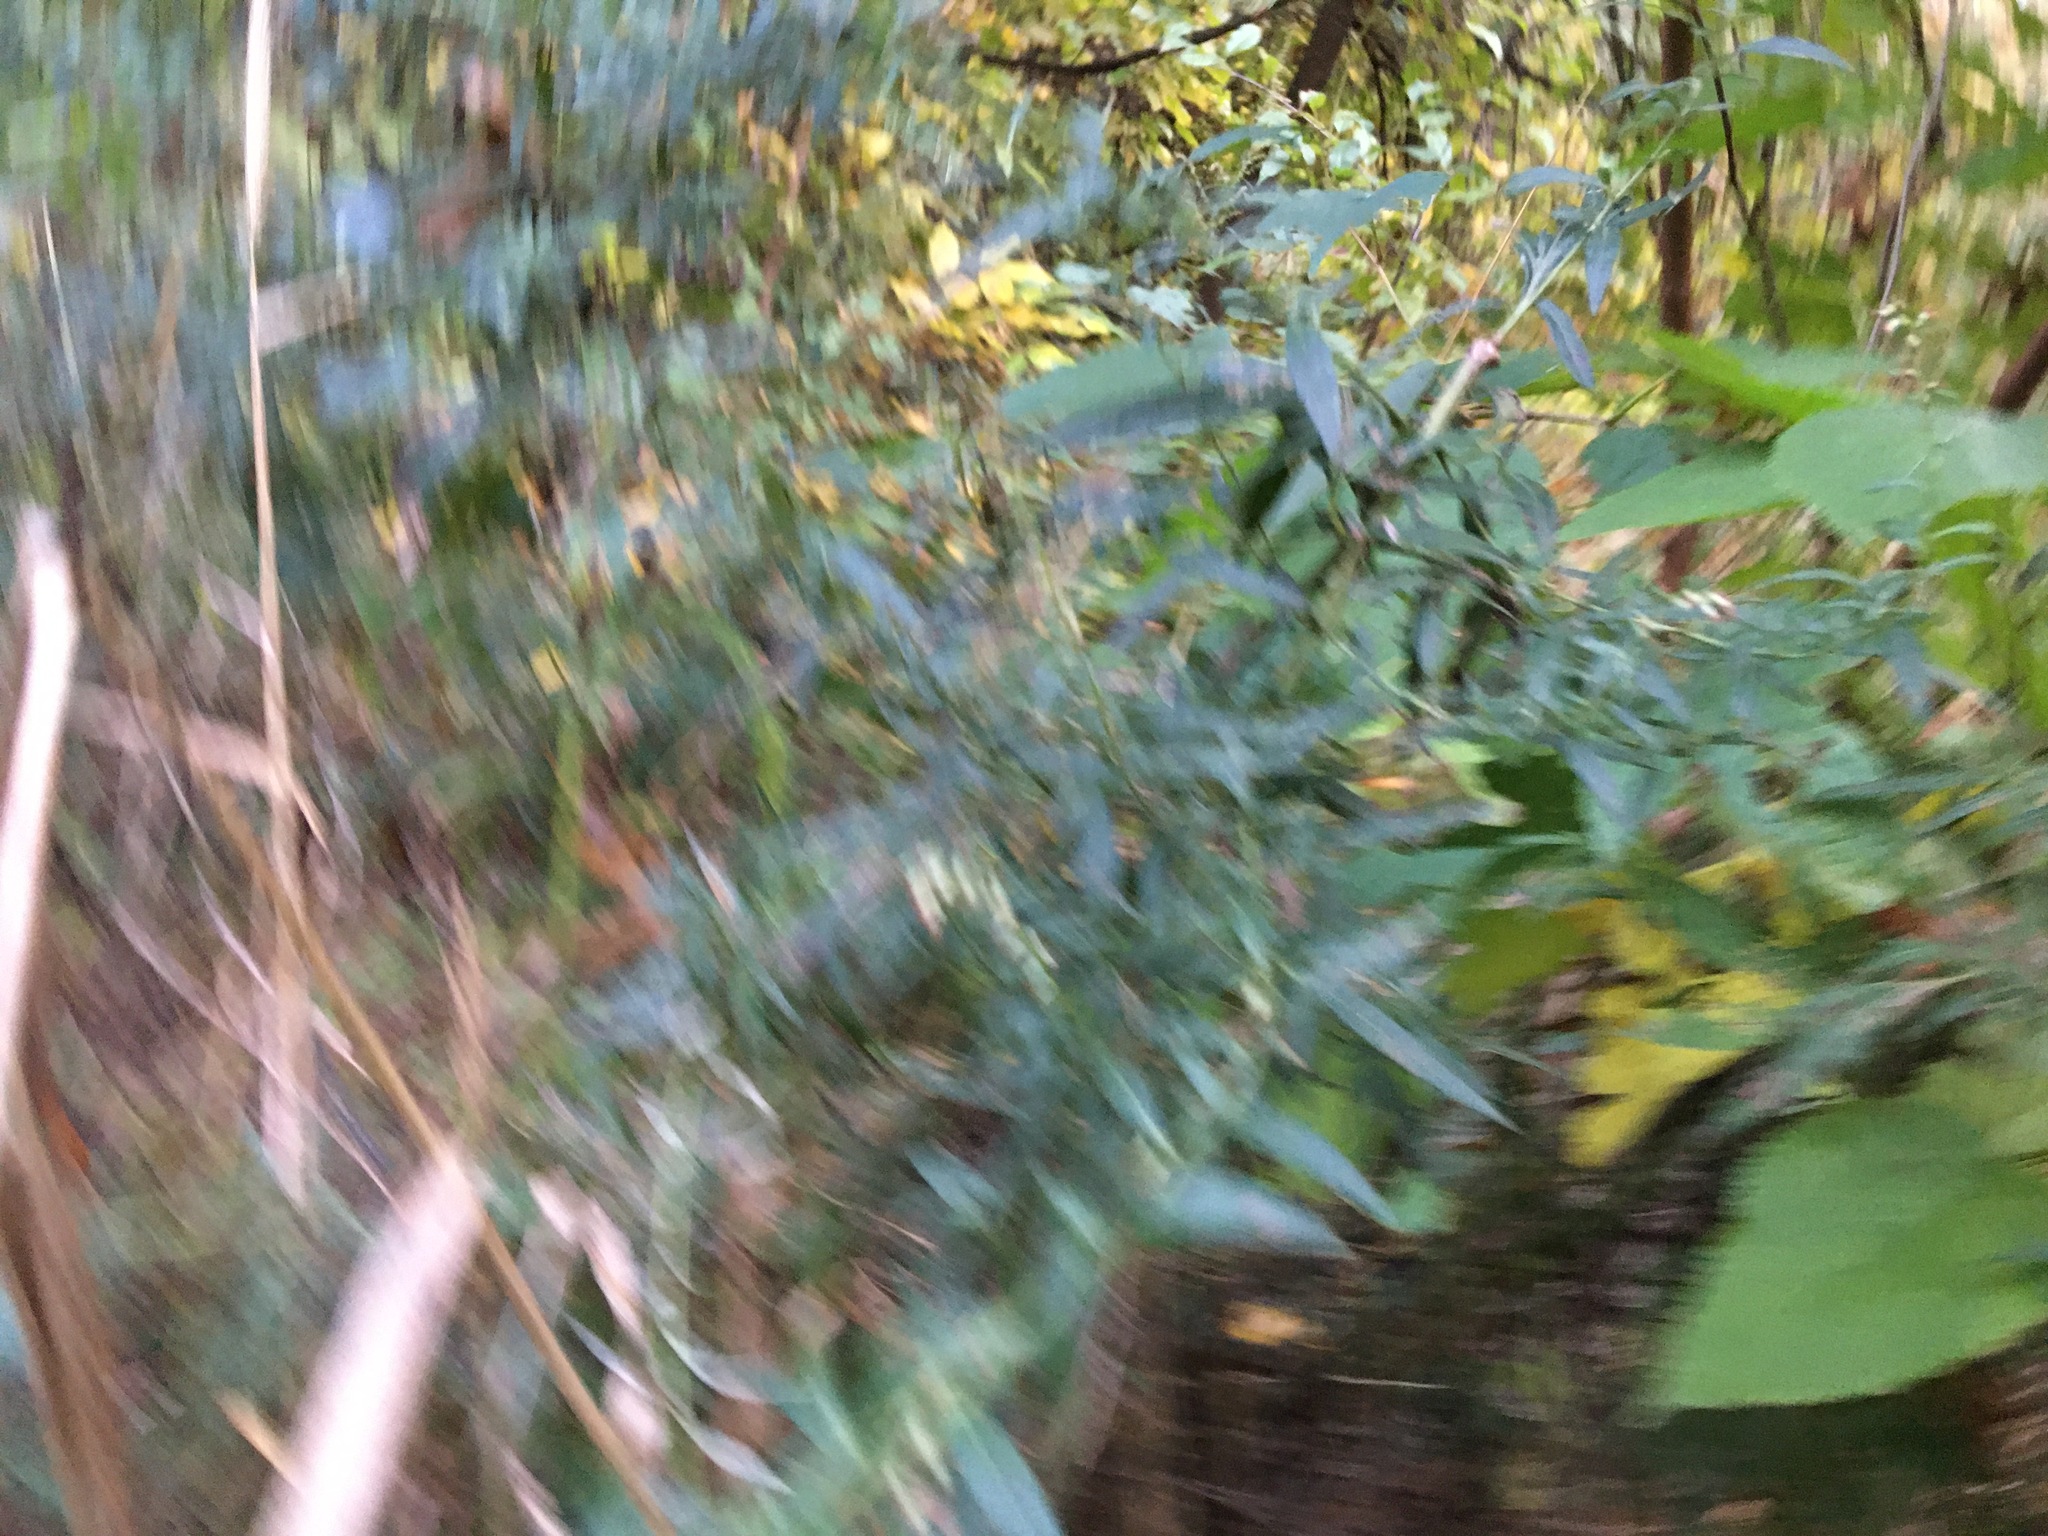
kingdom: Plantae
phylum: Tracheophyta
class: Magnoliopsida
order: Asterales
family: Asteraceae
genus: Artemisia
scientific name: Artemisia vulgaris
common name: Mugwort
